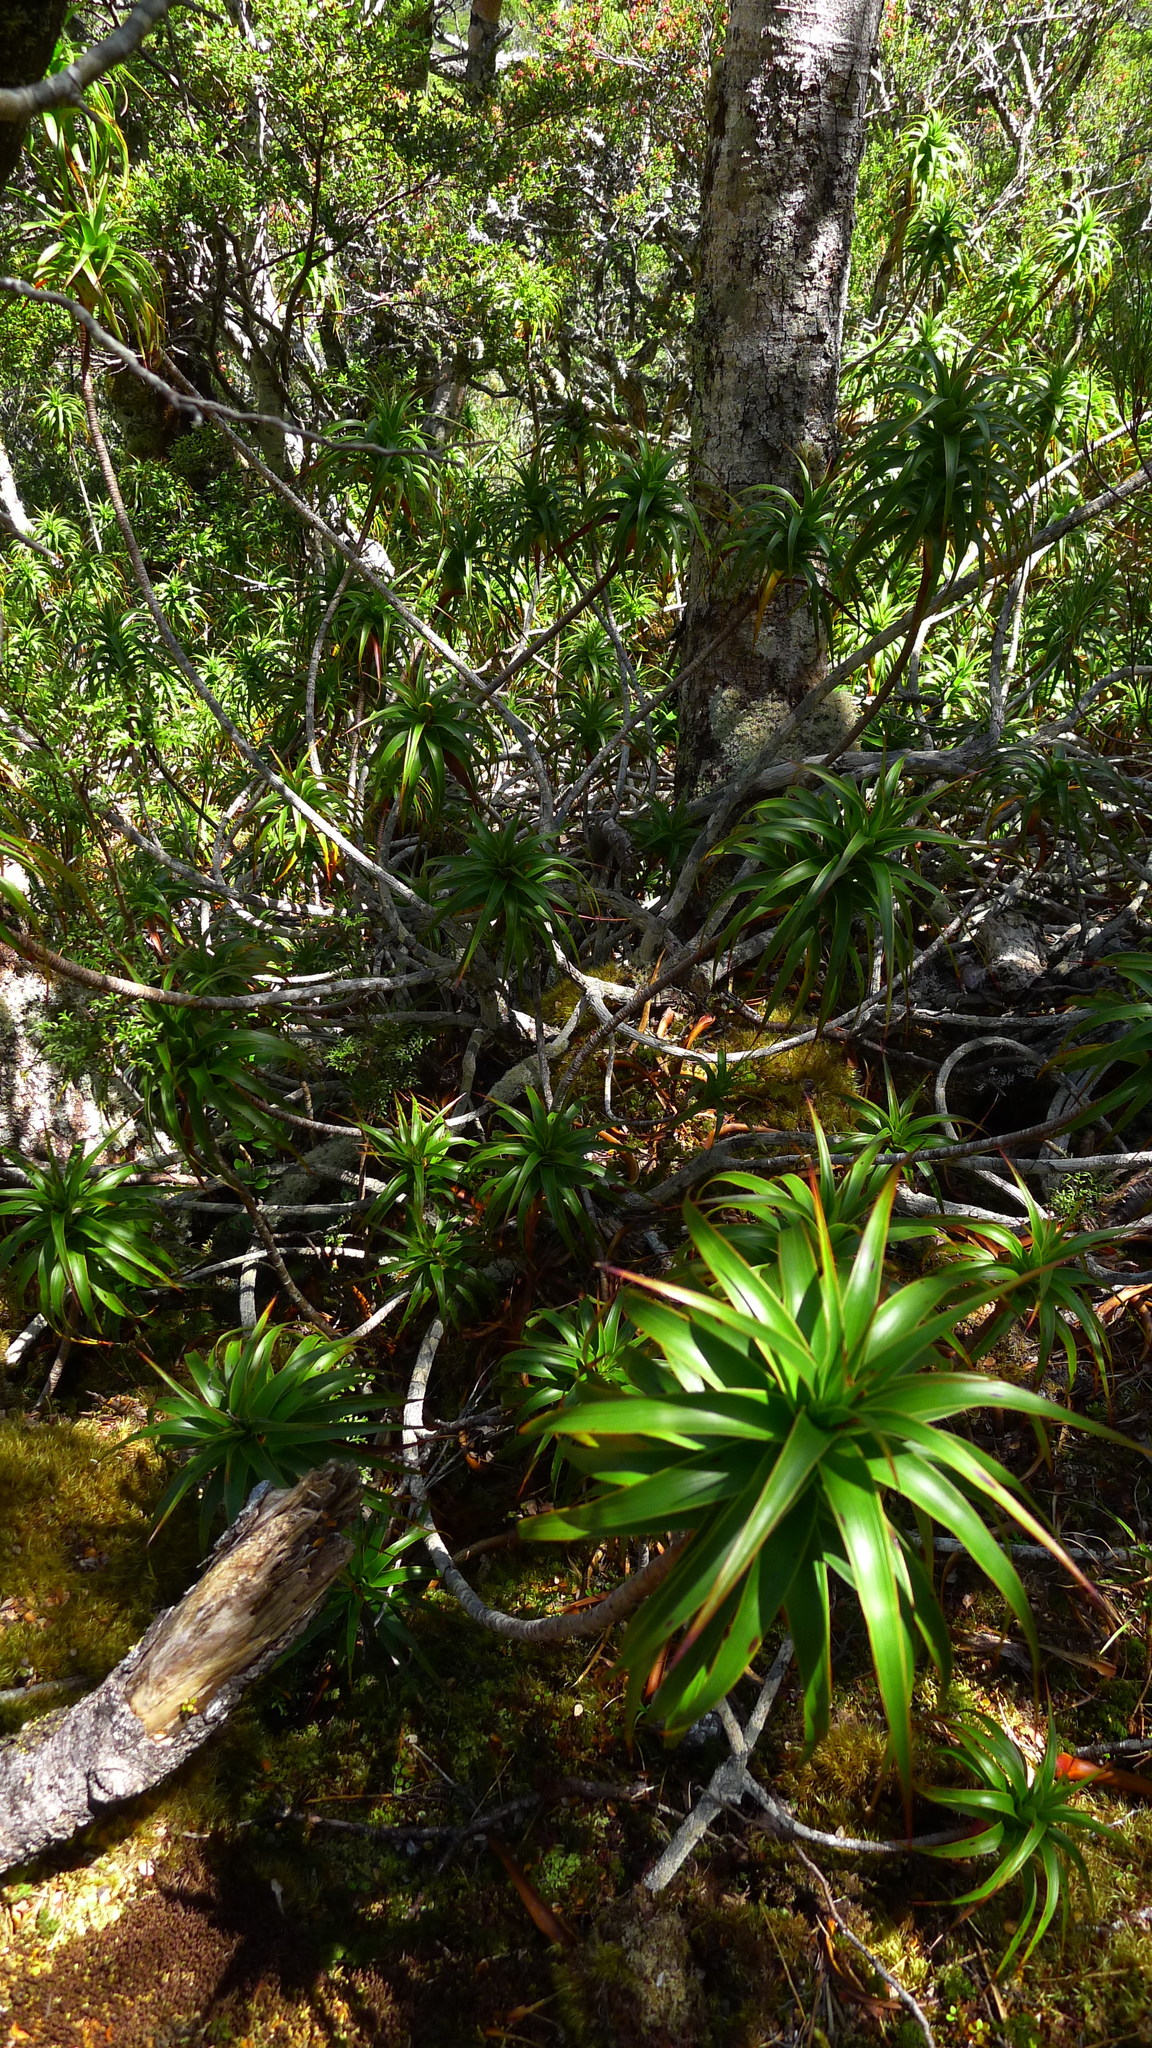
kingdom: Plantae
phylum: Tracheophyta
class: Magnoliopsida
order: Ericales
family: Ericaceae
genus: Dracophyllum
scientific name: Dracophyllum menziesii
